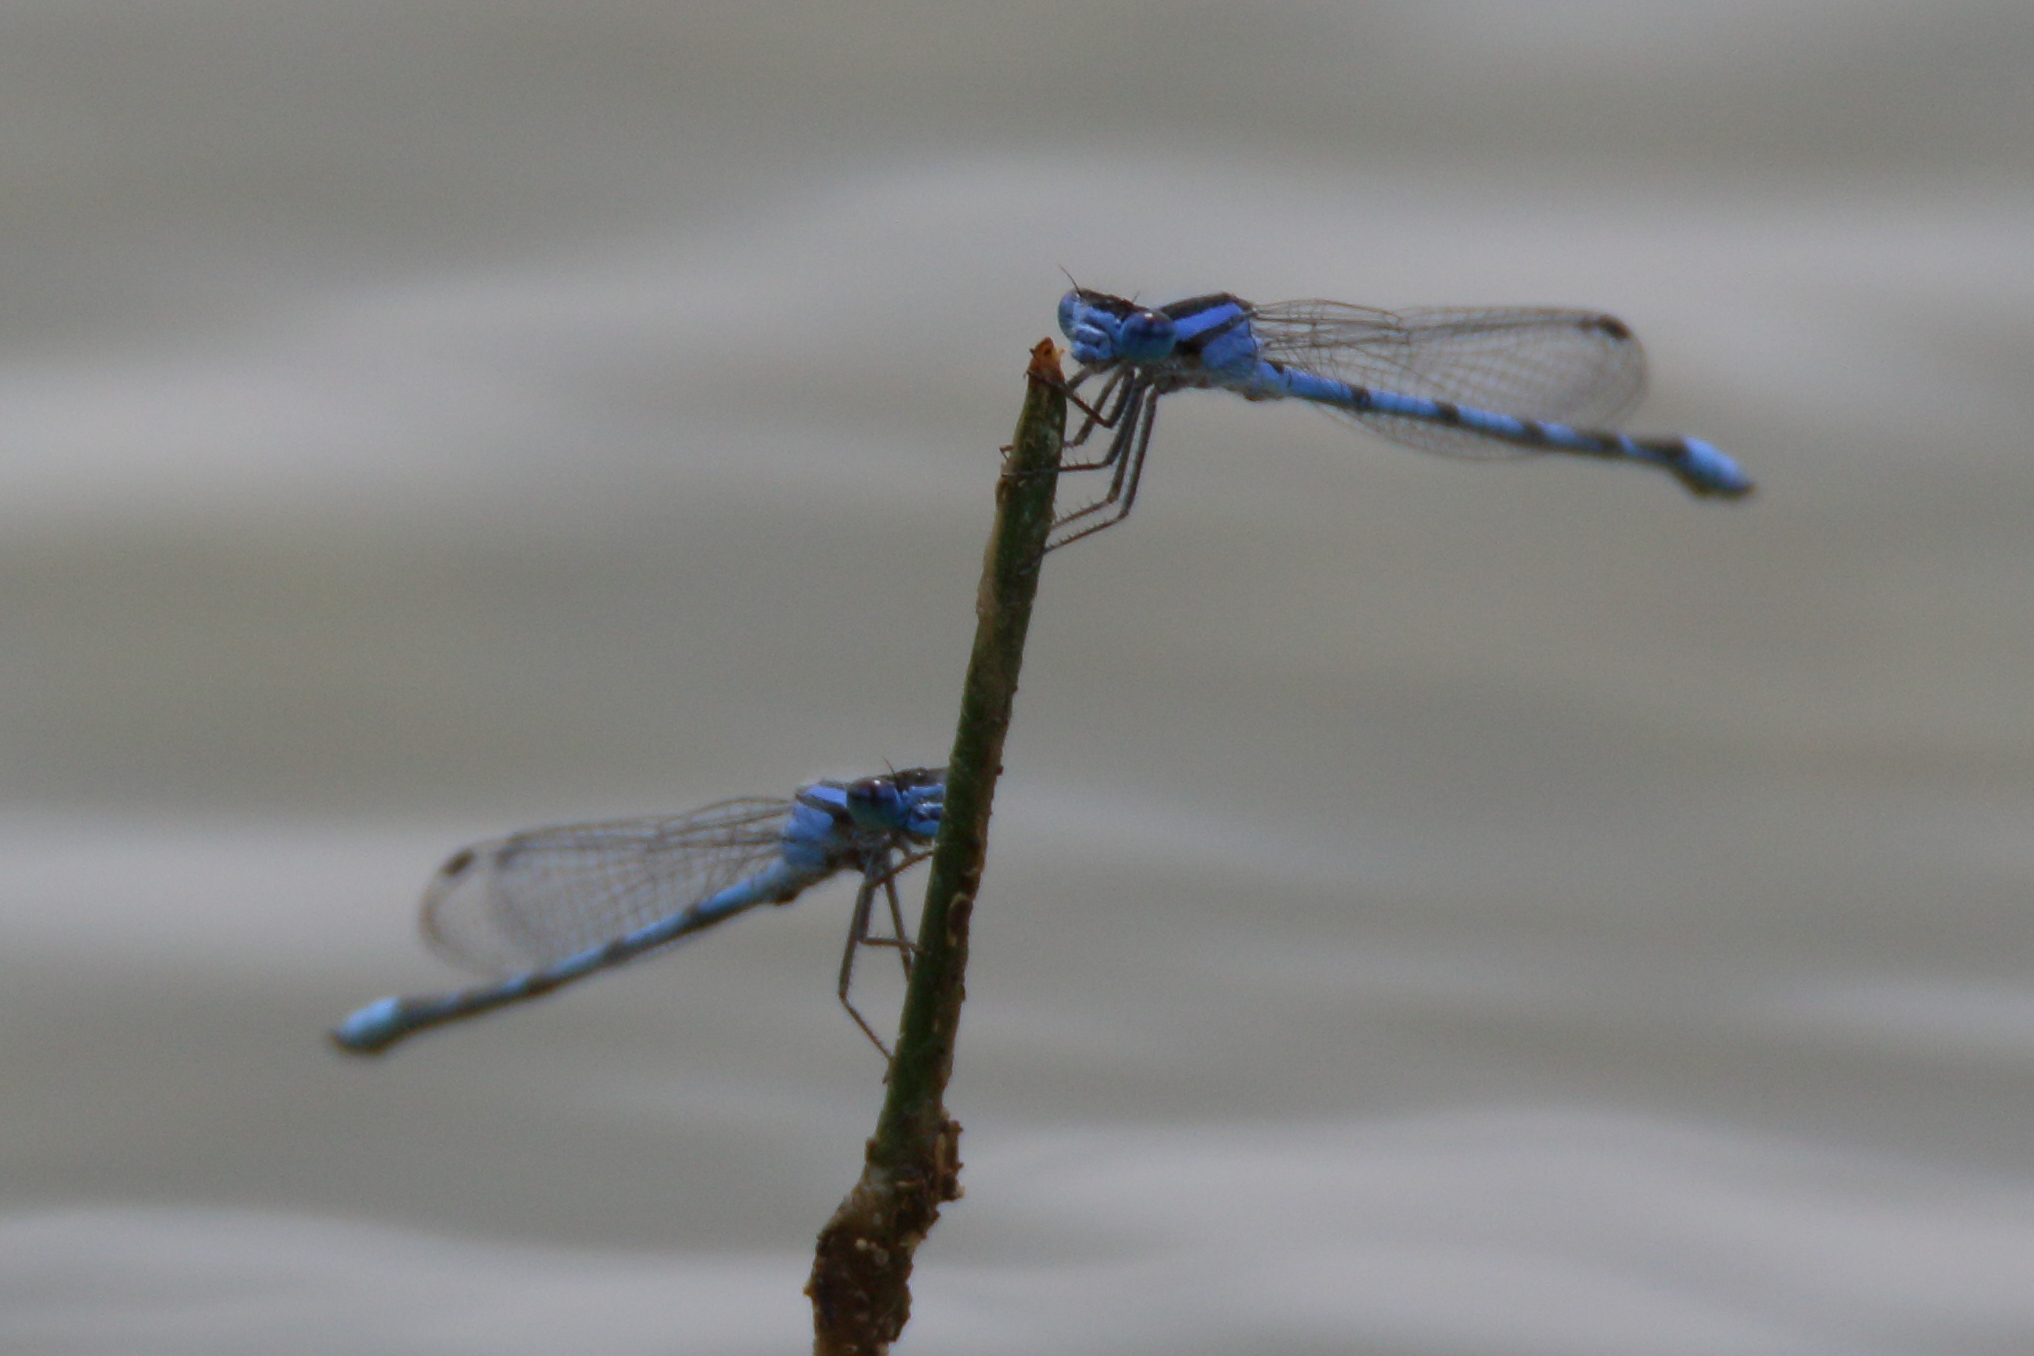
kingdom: Animalia
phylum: Arthropoda
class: Insecta
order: Odonata
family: Coenagrionidae
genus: Enallagma
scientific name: Enallagma civile
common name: Damselfly
